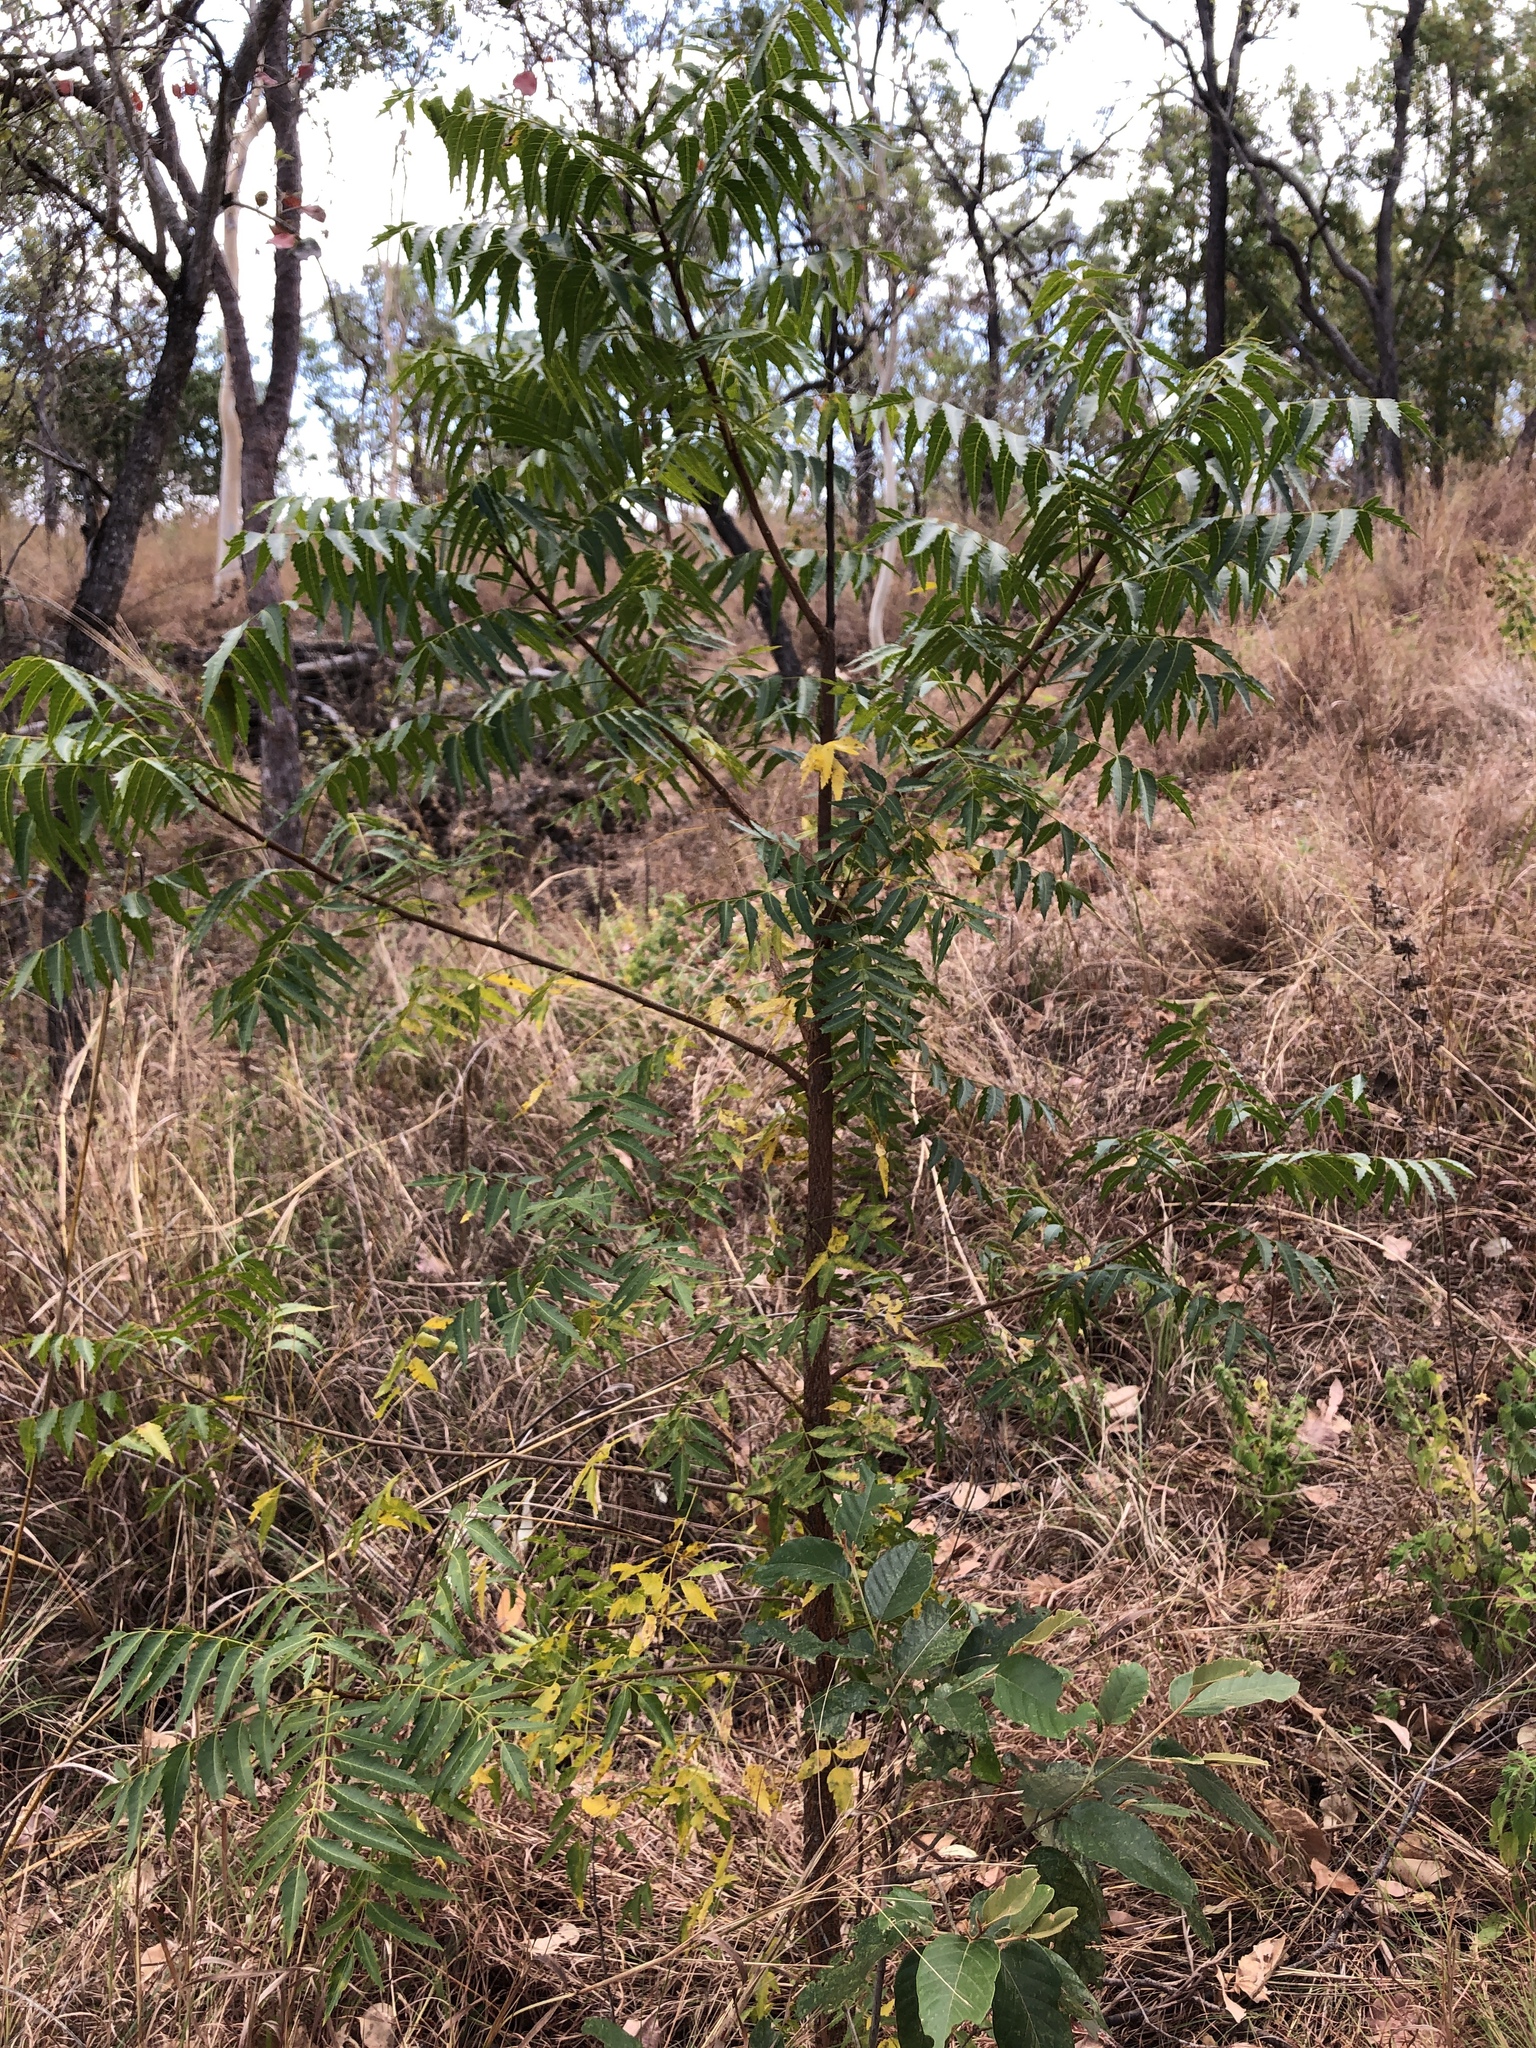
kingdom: Plantae
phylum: Tracheophyta
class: Magnoliopsida
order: Sapindales
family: Meliaceae
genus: Azadirachta
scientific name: Azadirachta indica
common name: Neem
